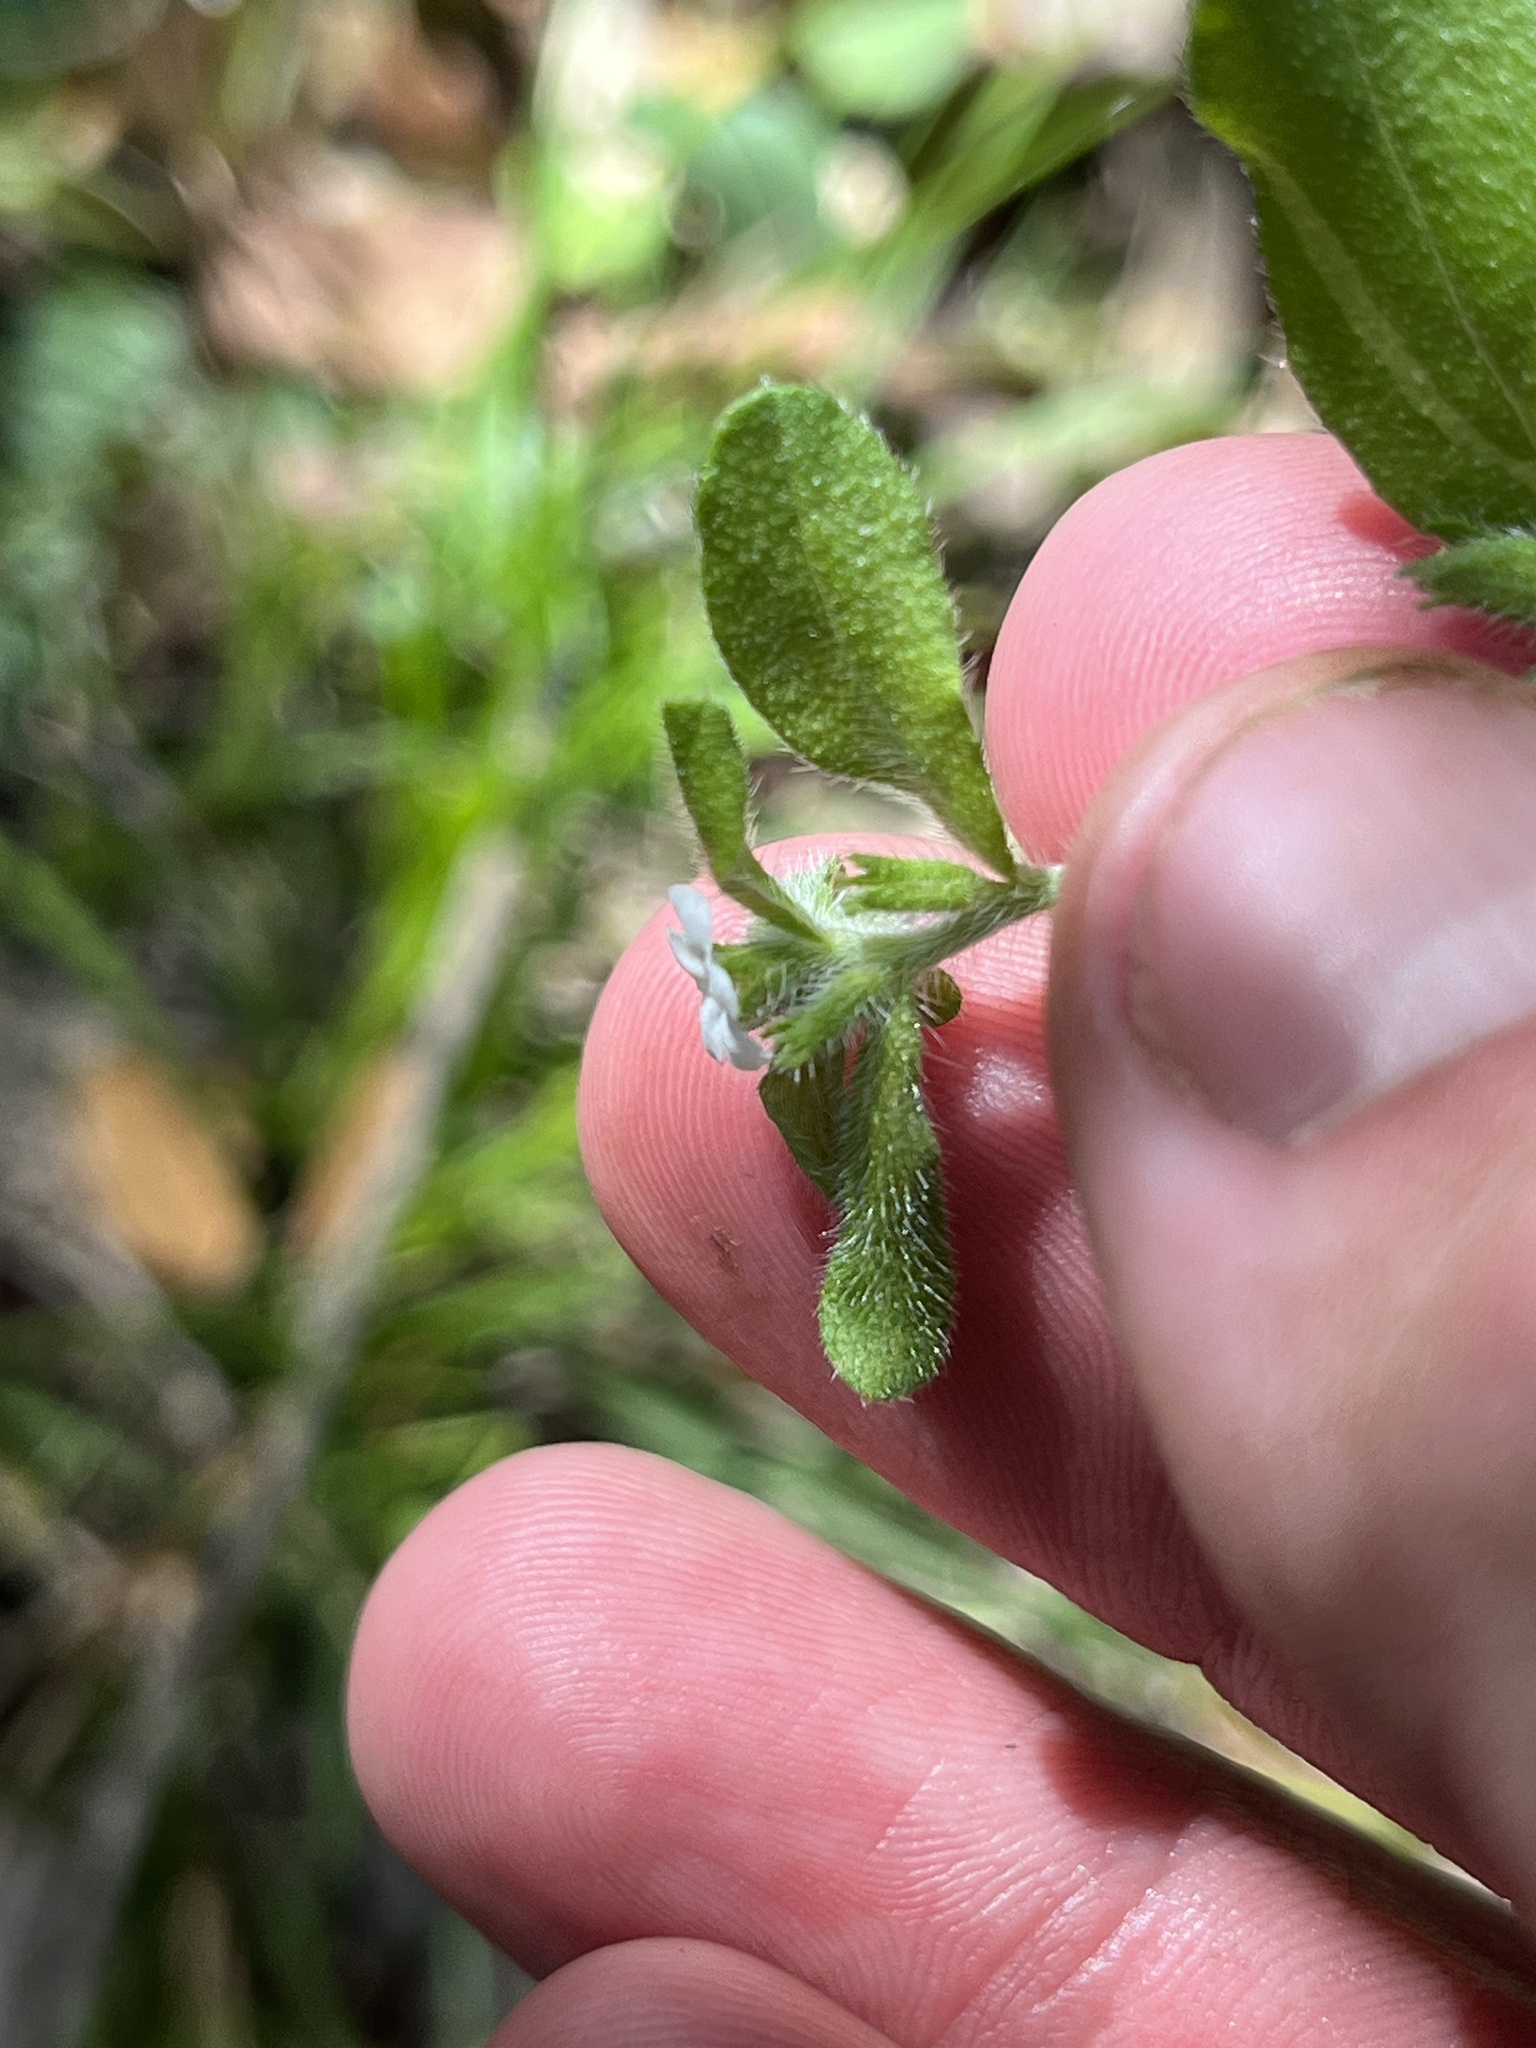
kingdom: Plantae
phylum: Tracheophyta
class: Magnoliopsida
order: Boraginales
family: Boraginaceae
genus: Lithospermum
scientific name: Lithospermum matamorense
